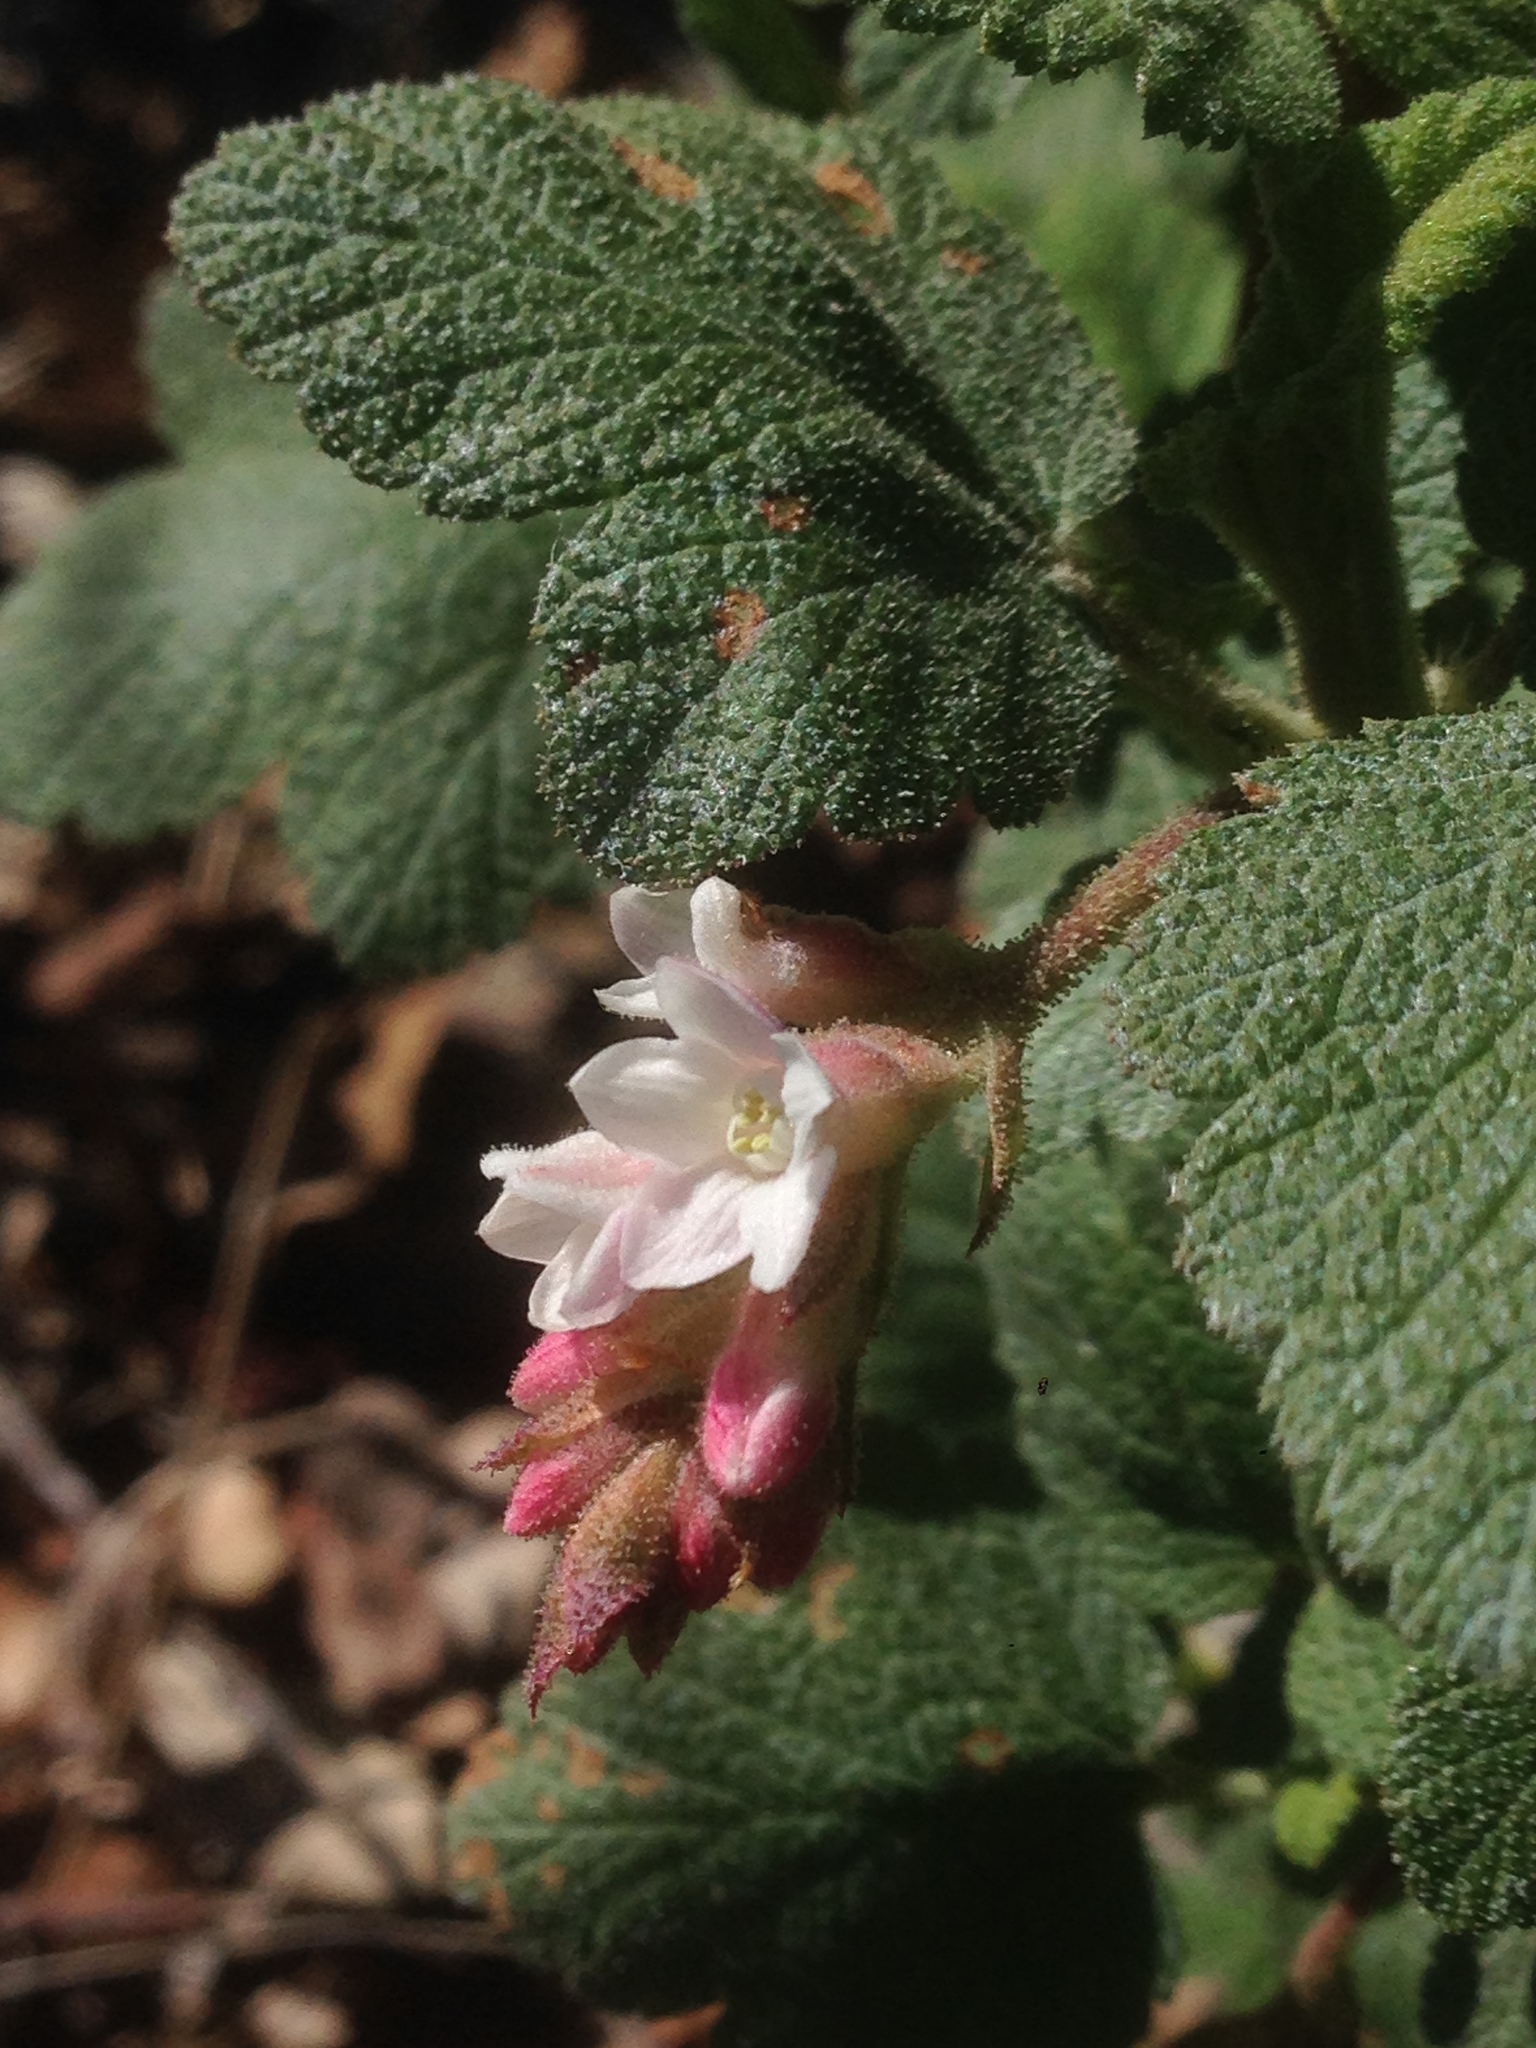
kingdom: Plantae
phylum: Tracheophyta
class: Magnoliopsida
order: Saxifragales
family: Grossulariaceae
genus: Ribes
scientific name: Ribes malvaceum
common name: Chaparral currant
